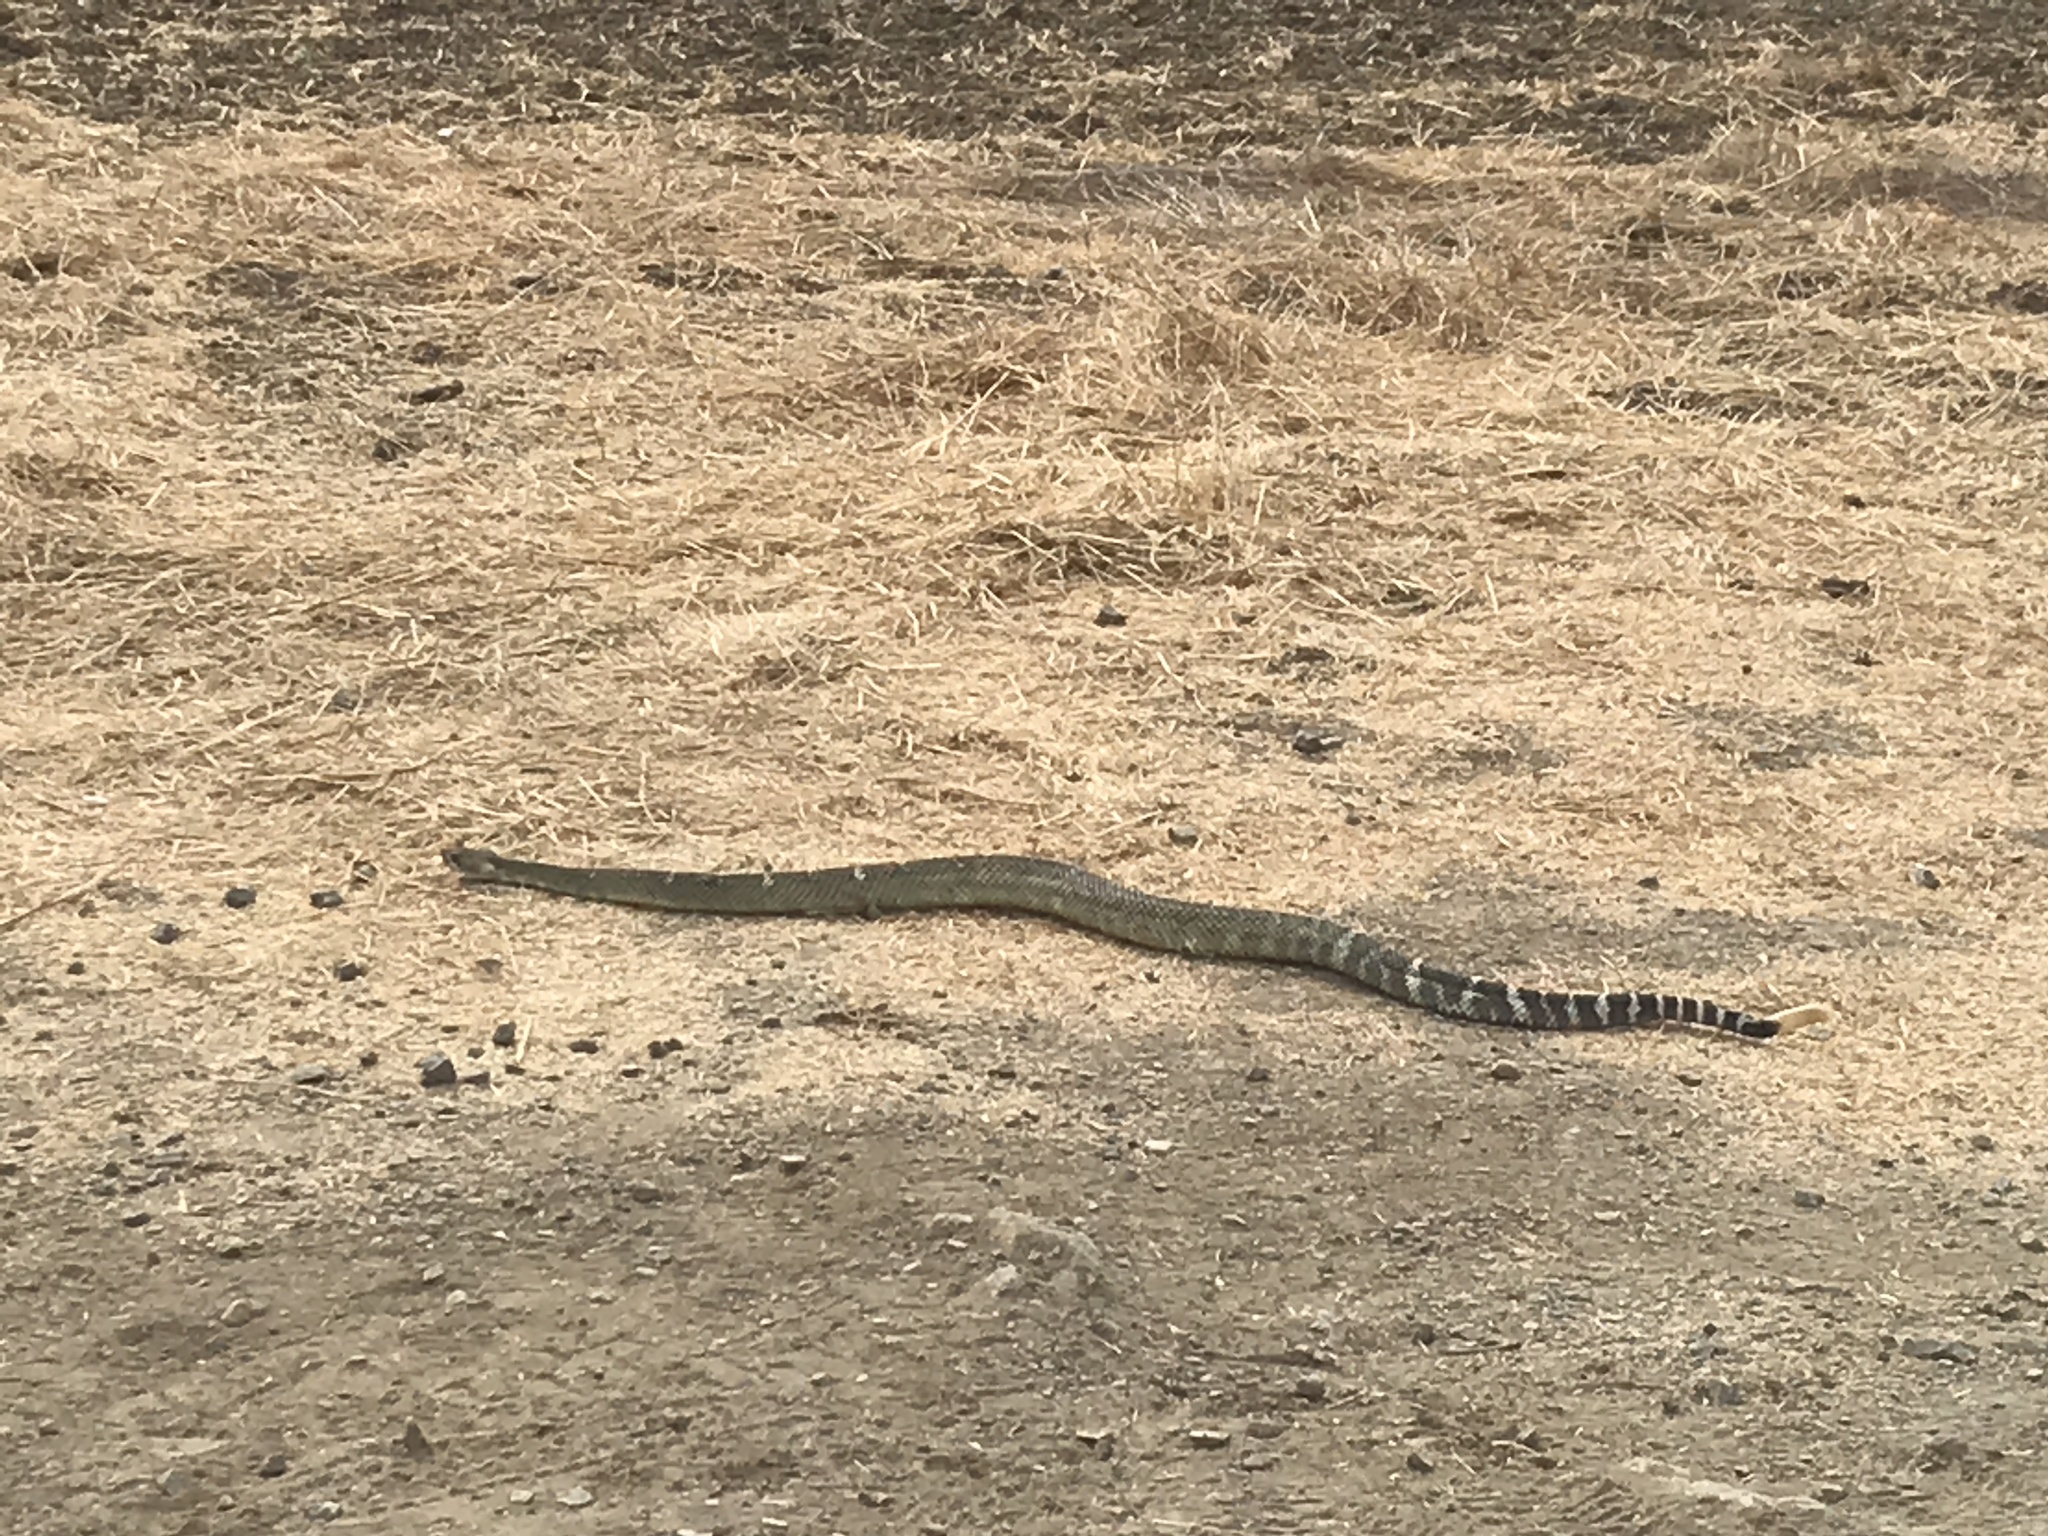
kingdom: Animalia
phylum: Chordata
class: Squamata
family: Viperidae
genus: Crotalus
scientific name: Crotalus oreganus
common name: Abyssus
